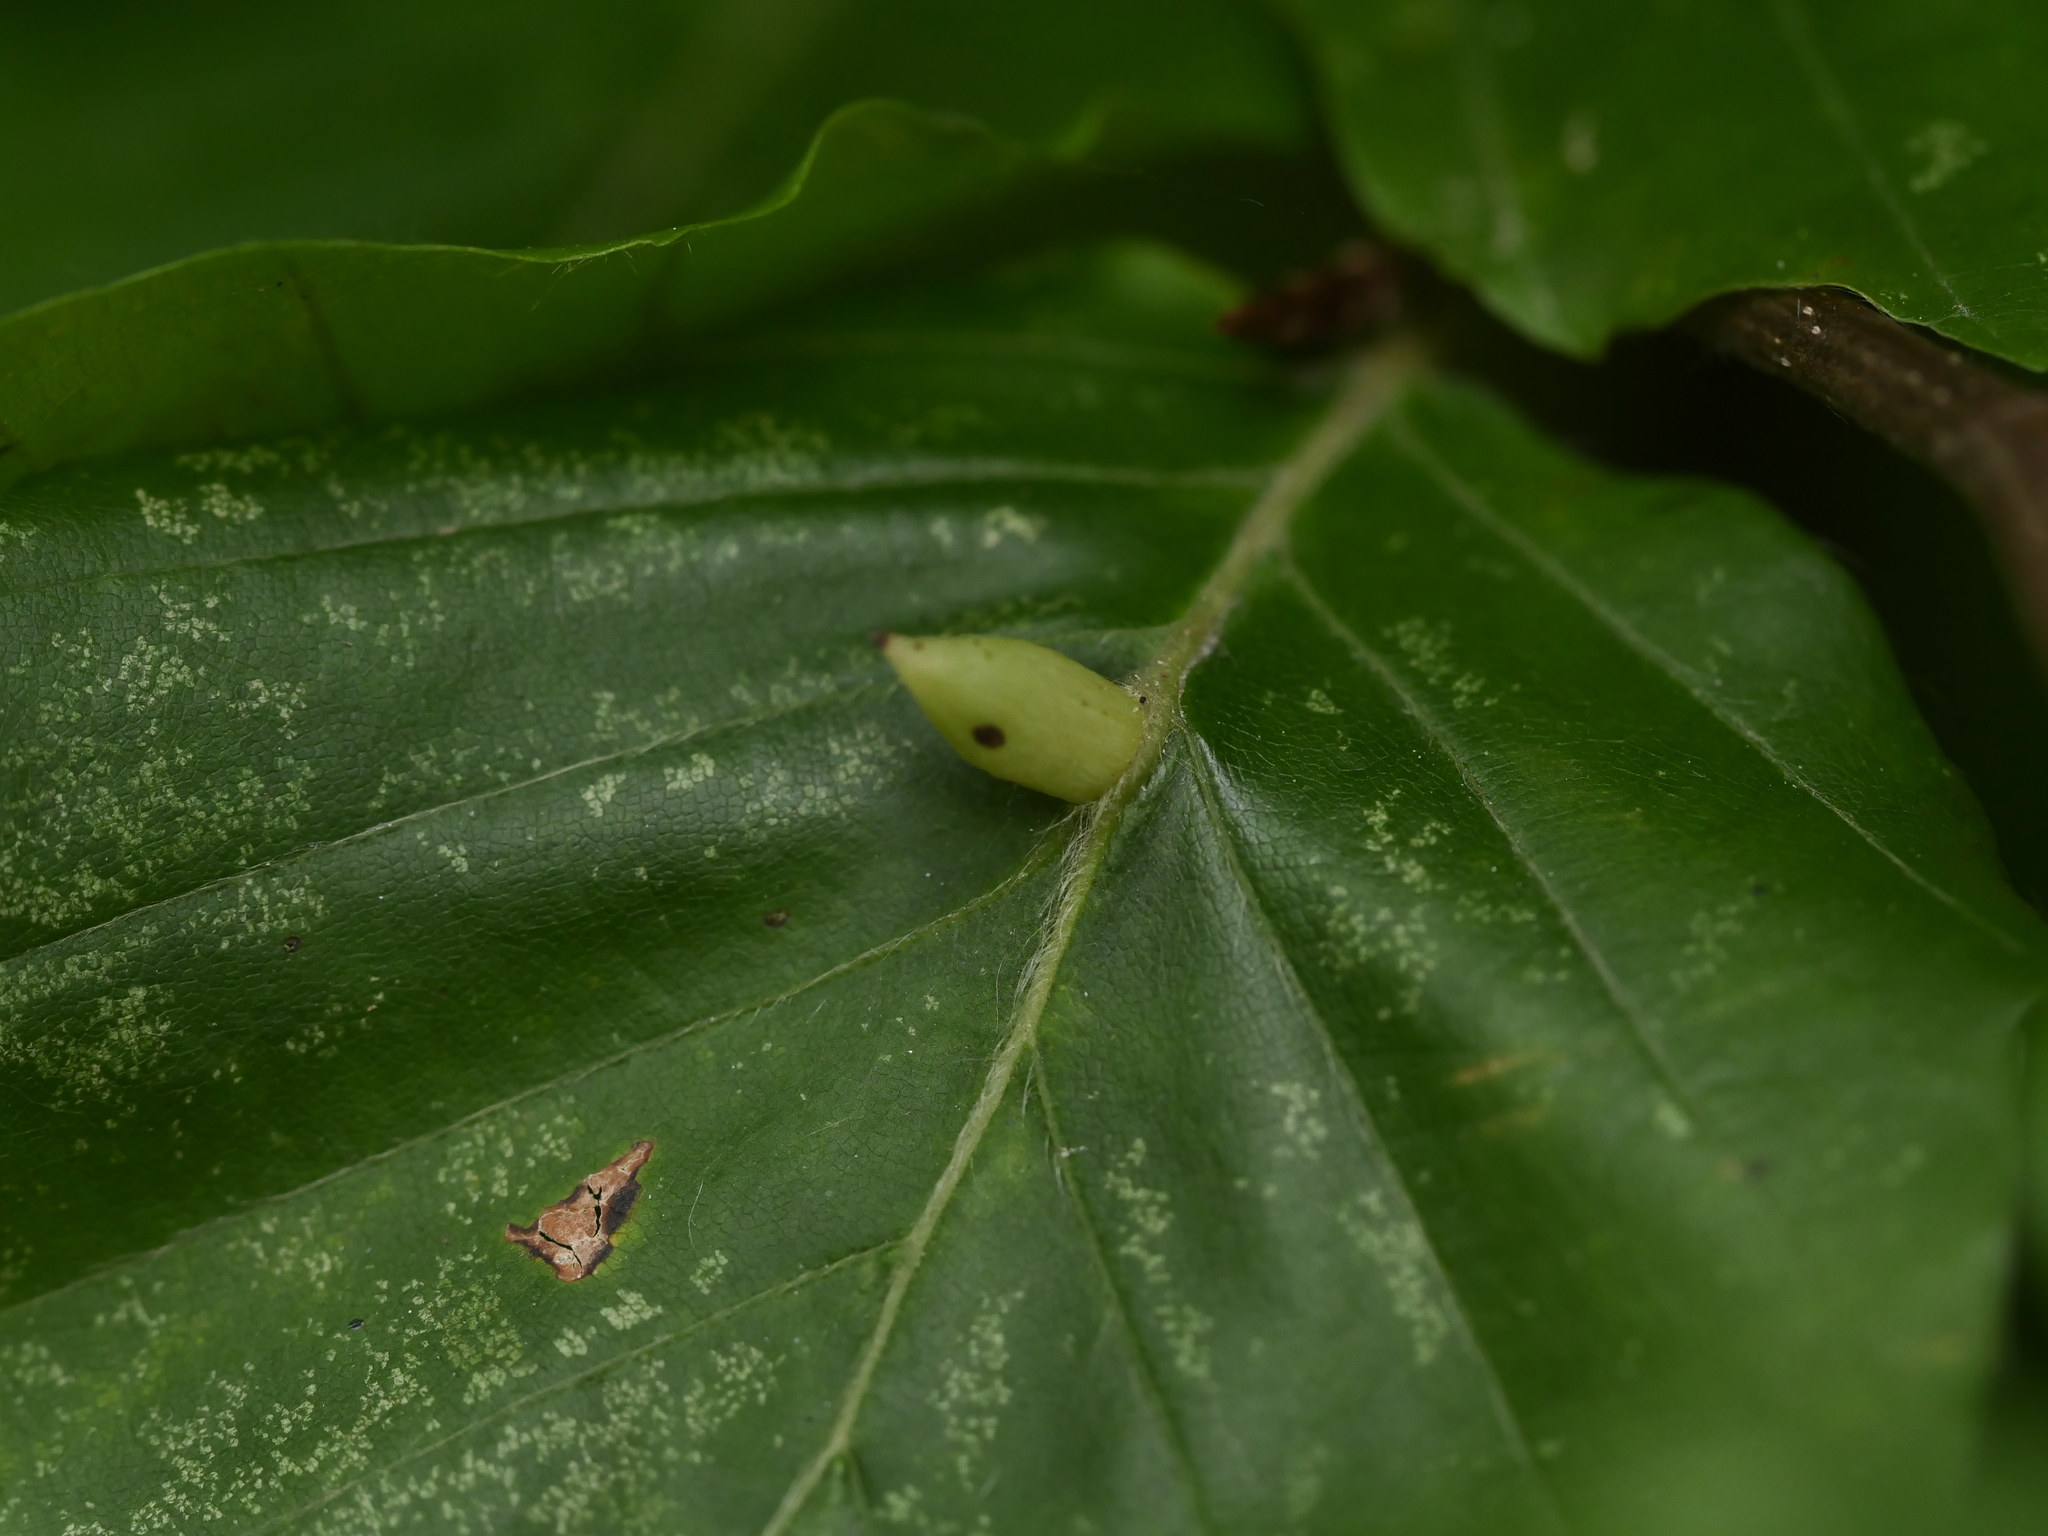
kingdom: Animalia
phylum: Arthropoda
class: Insecta
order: Diptera
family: Cecidomyiidae
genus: Mikiola
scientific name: Mikiola fagi
